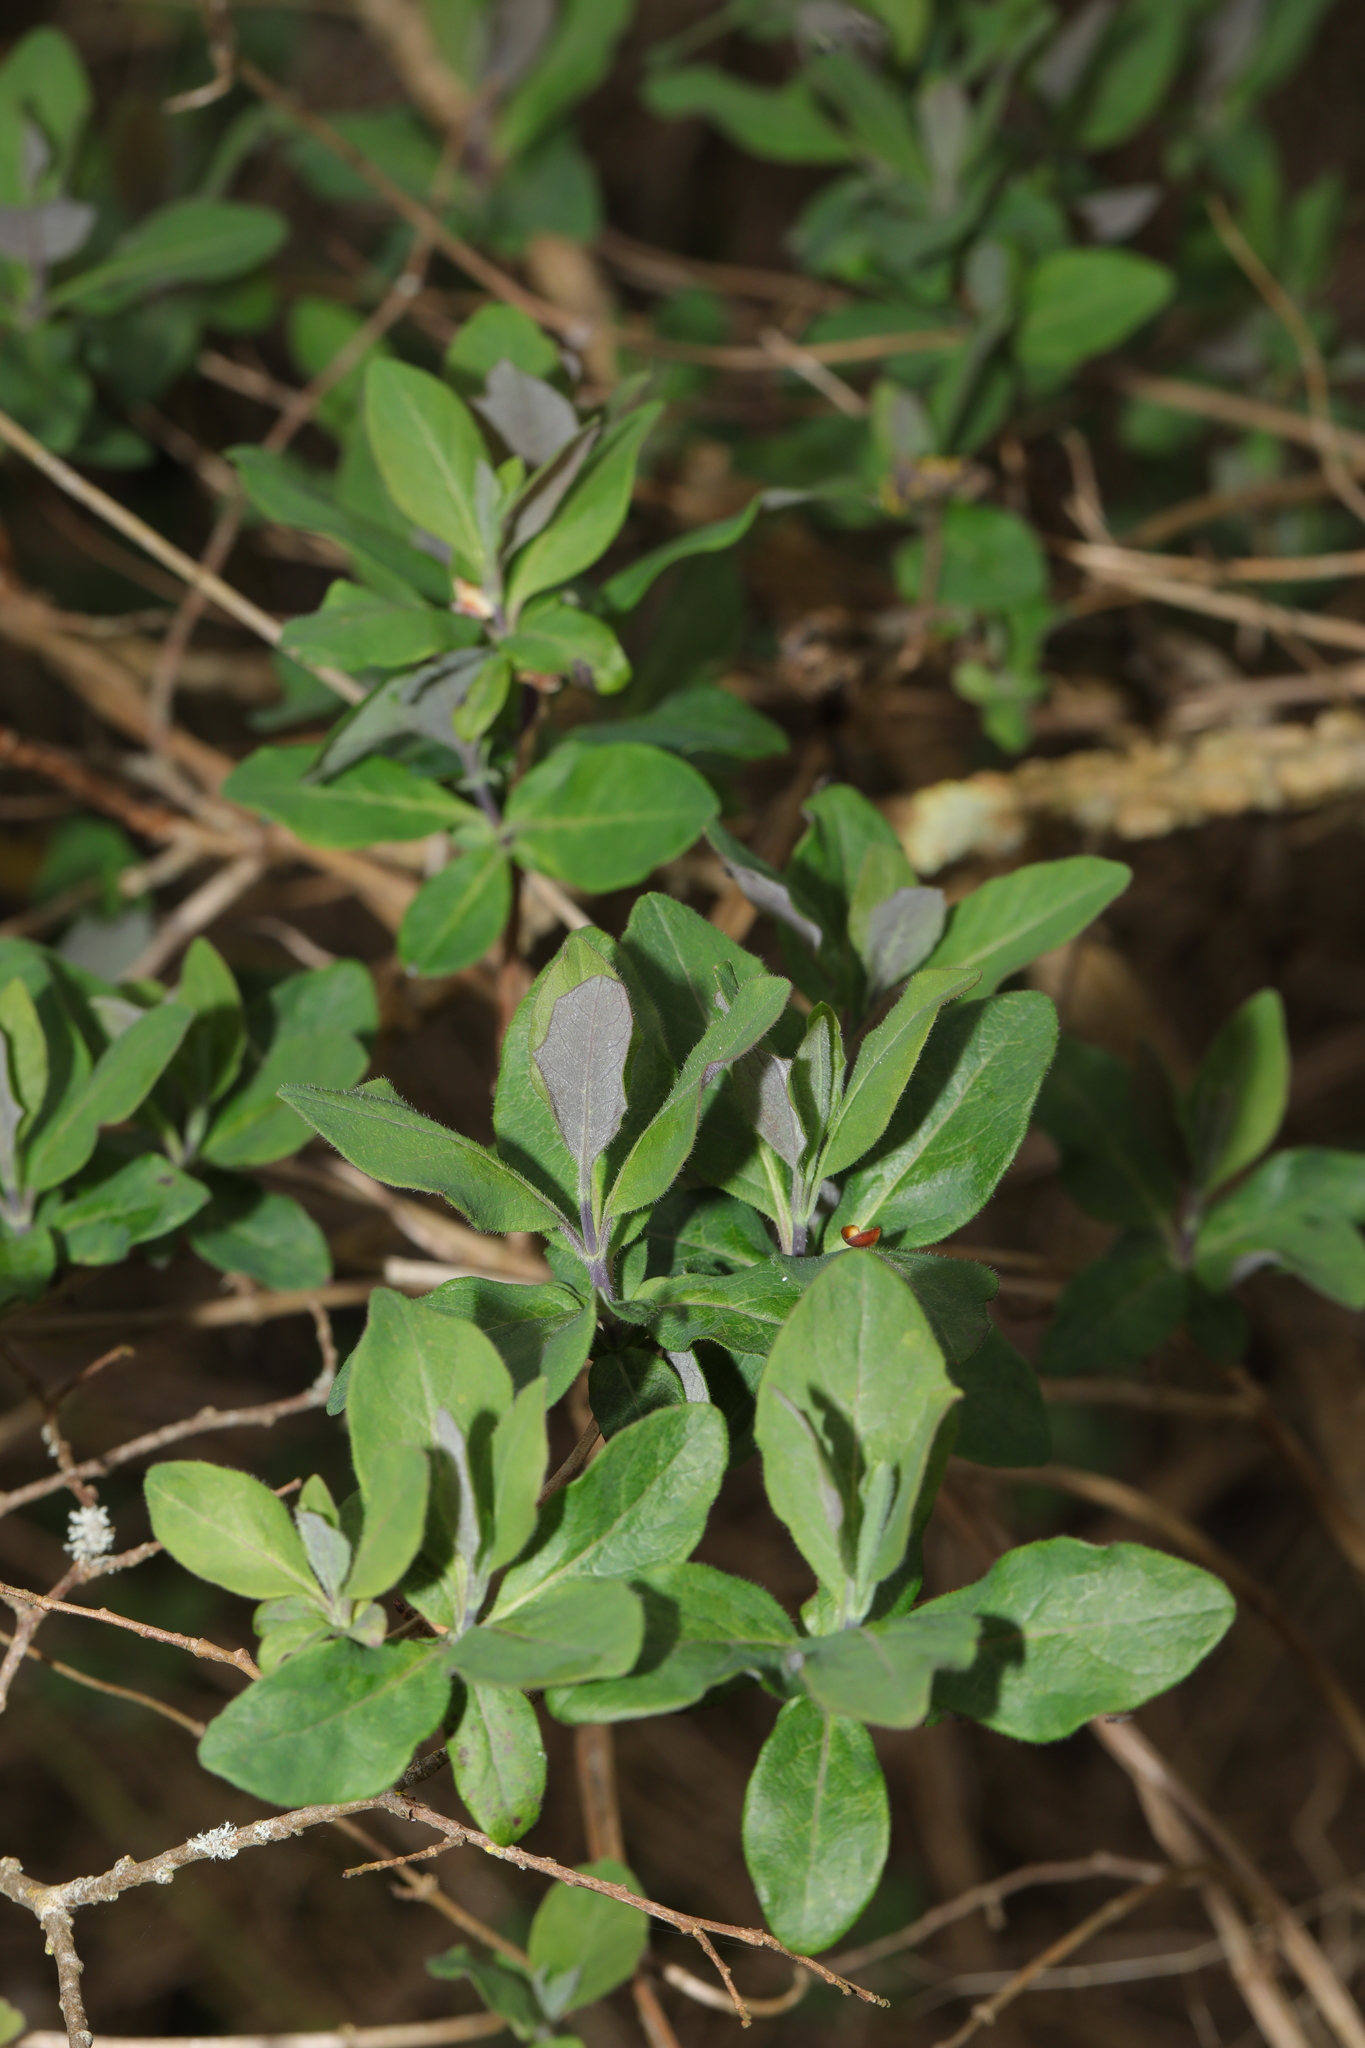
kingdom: Plantae
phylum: Tracheophyta
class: Magnoliopsida
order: Dipsacales
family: Caprifoliaceae
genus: Lonicera
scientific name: Lonicera periclymenum
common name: European honeysuckle
